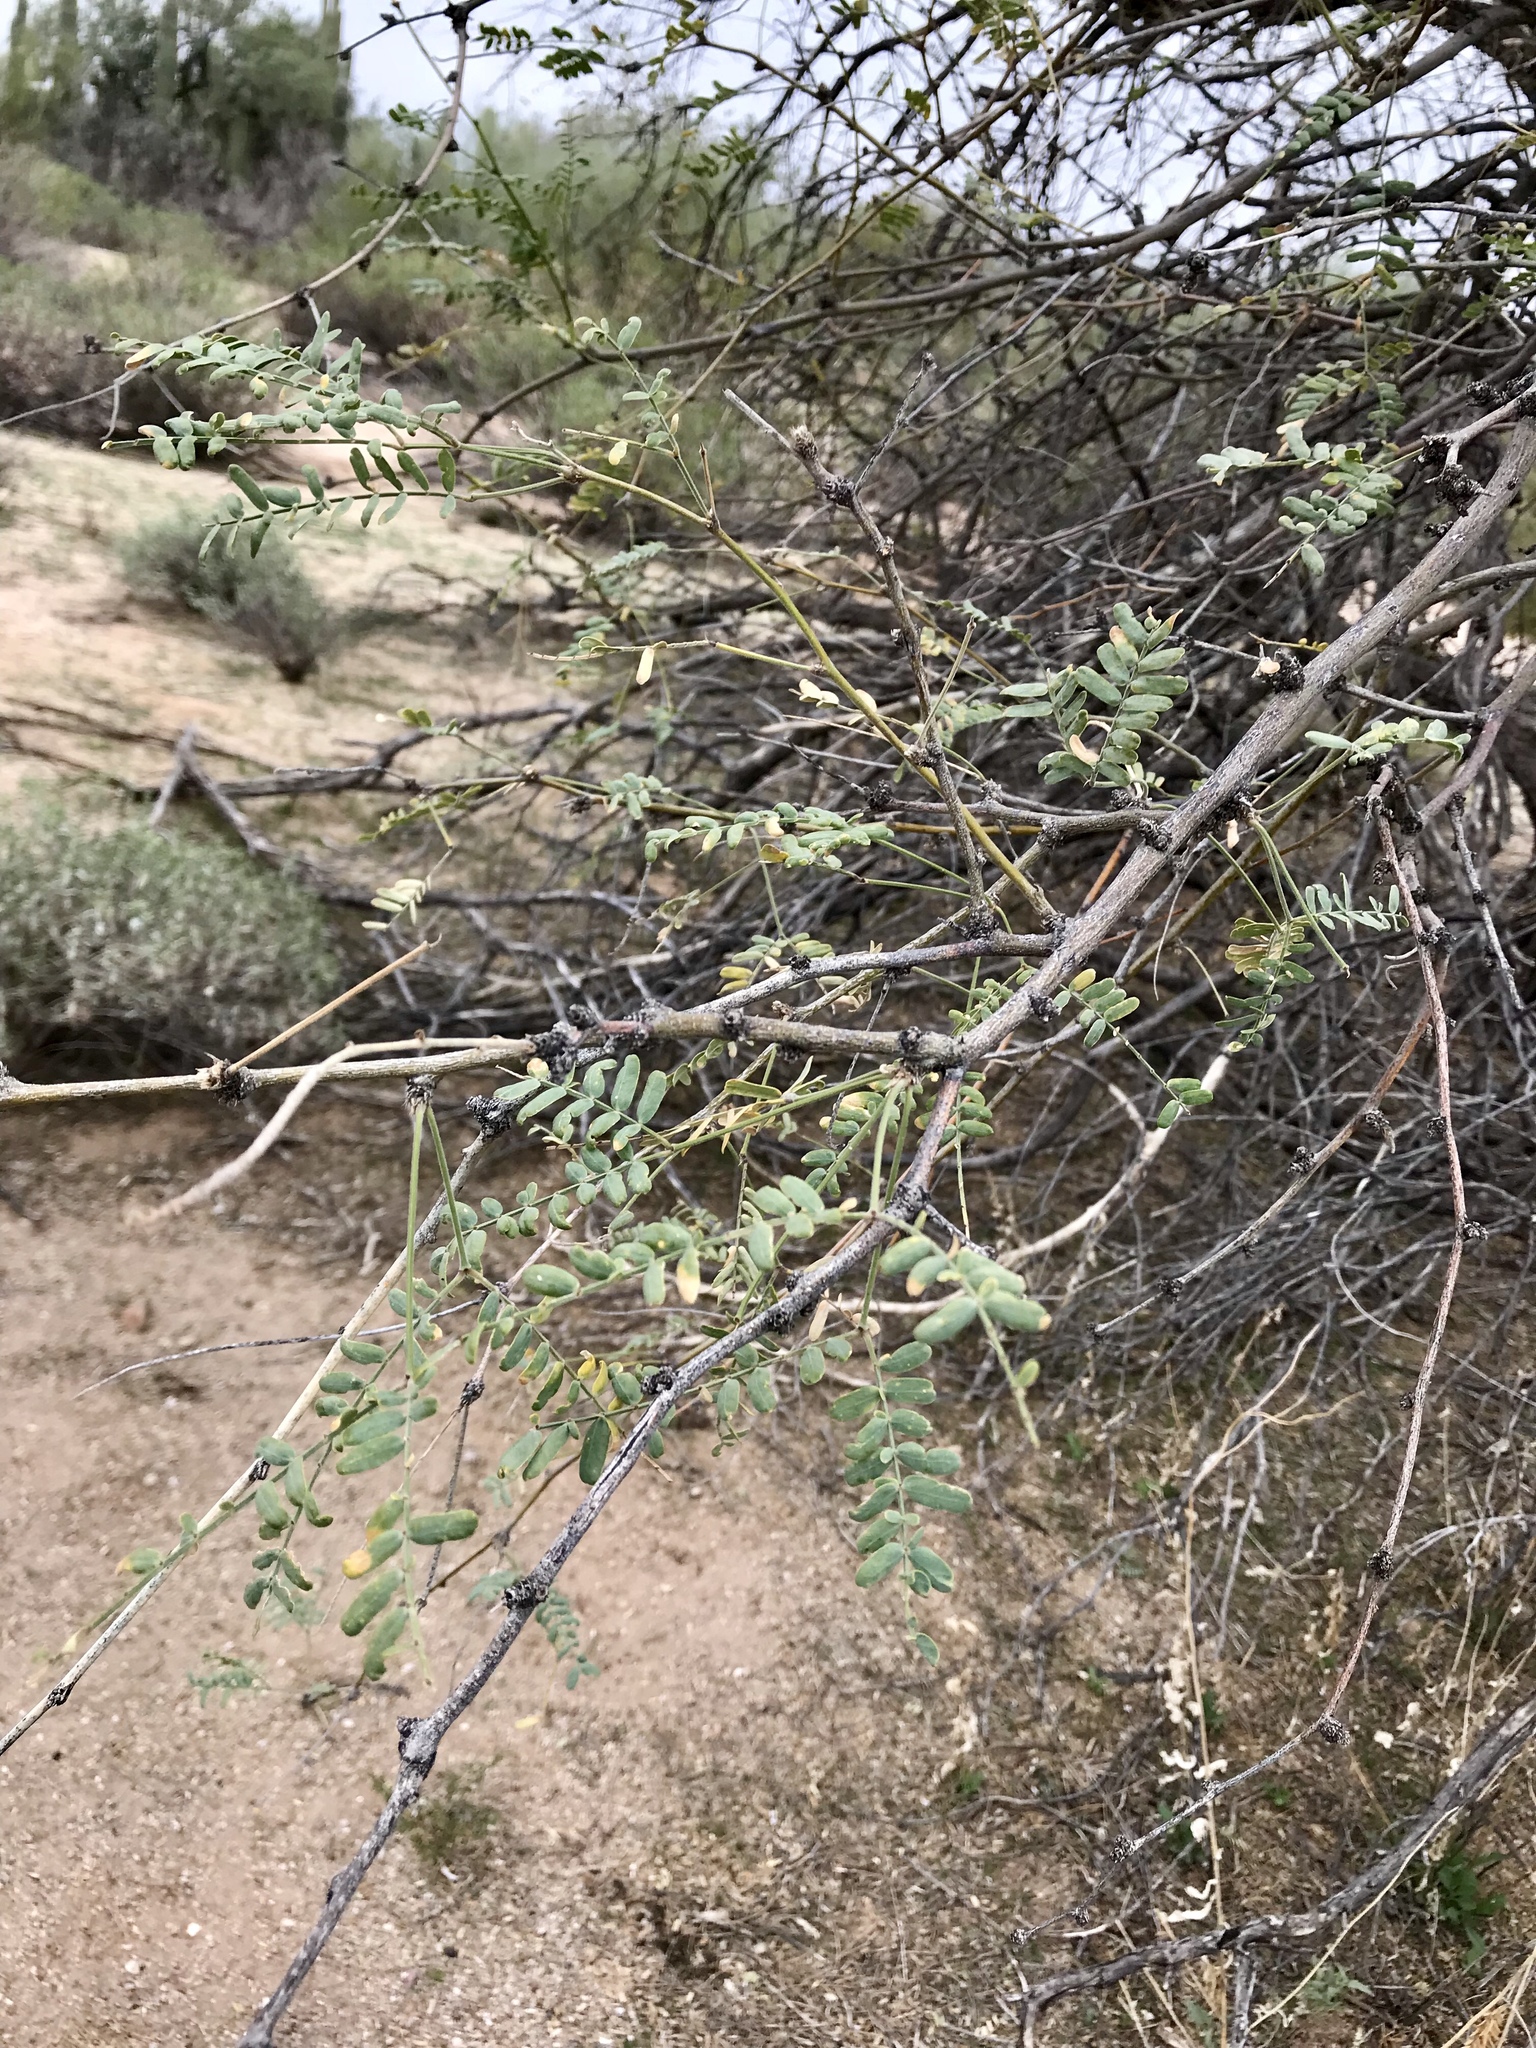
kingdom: Plantae
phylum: Tracheophyta
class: Magnoliopsida
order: Fabales
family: Fabaceae
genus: Prosopis
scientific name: Prosopis velutina
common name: Velvet mesquite
